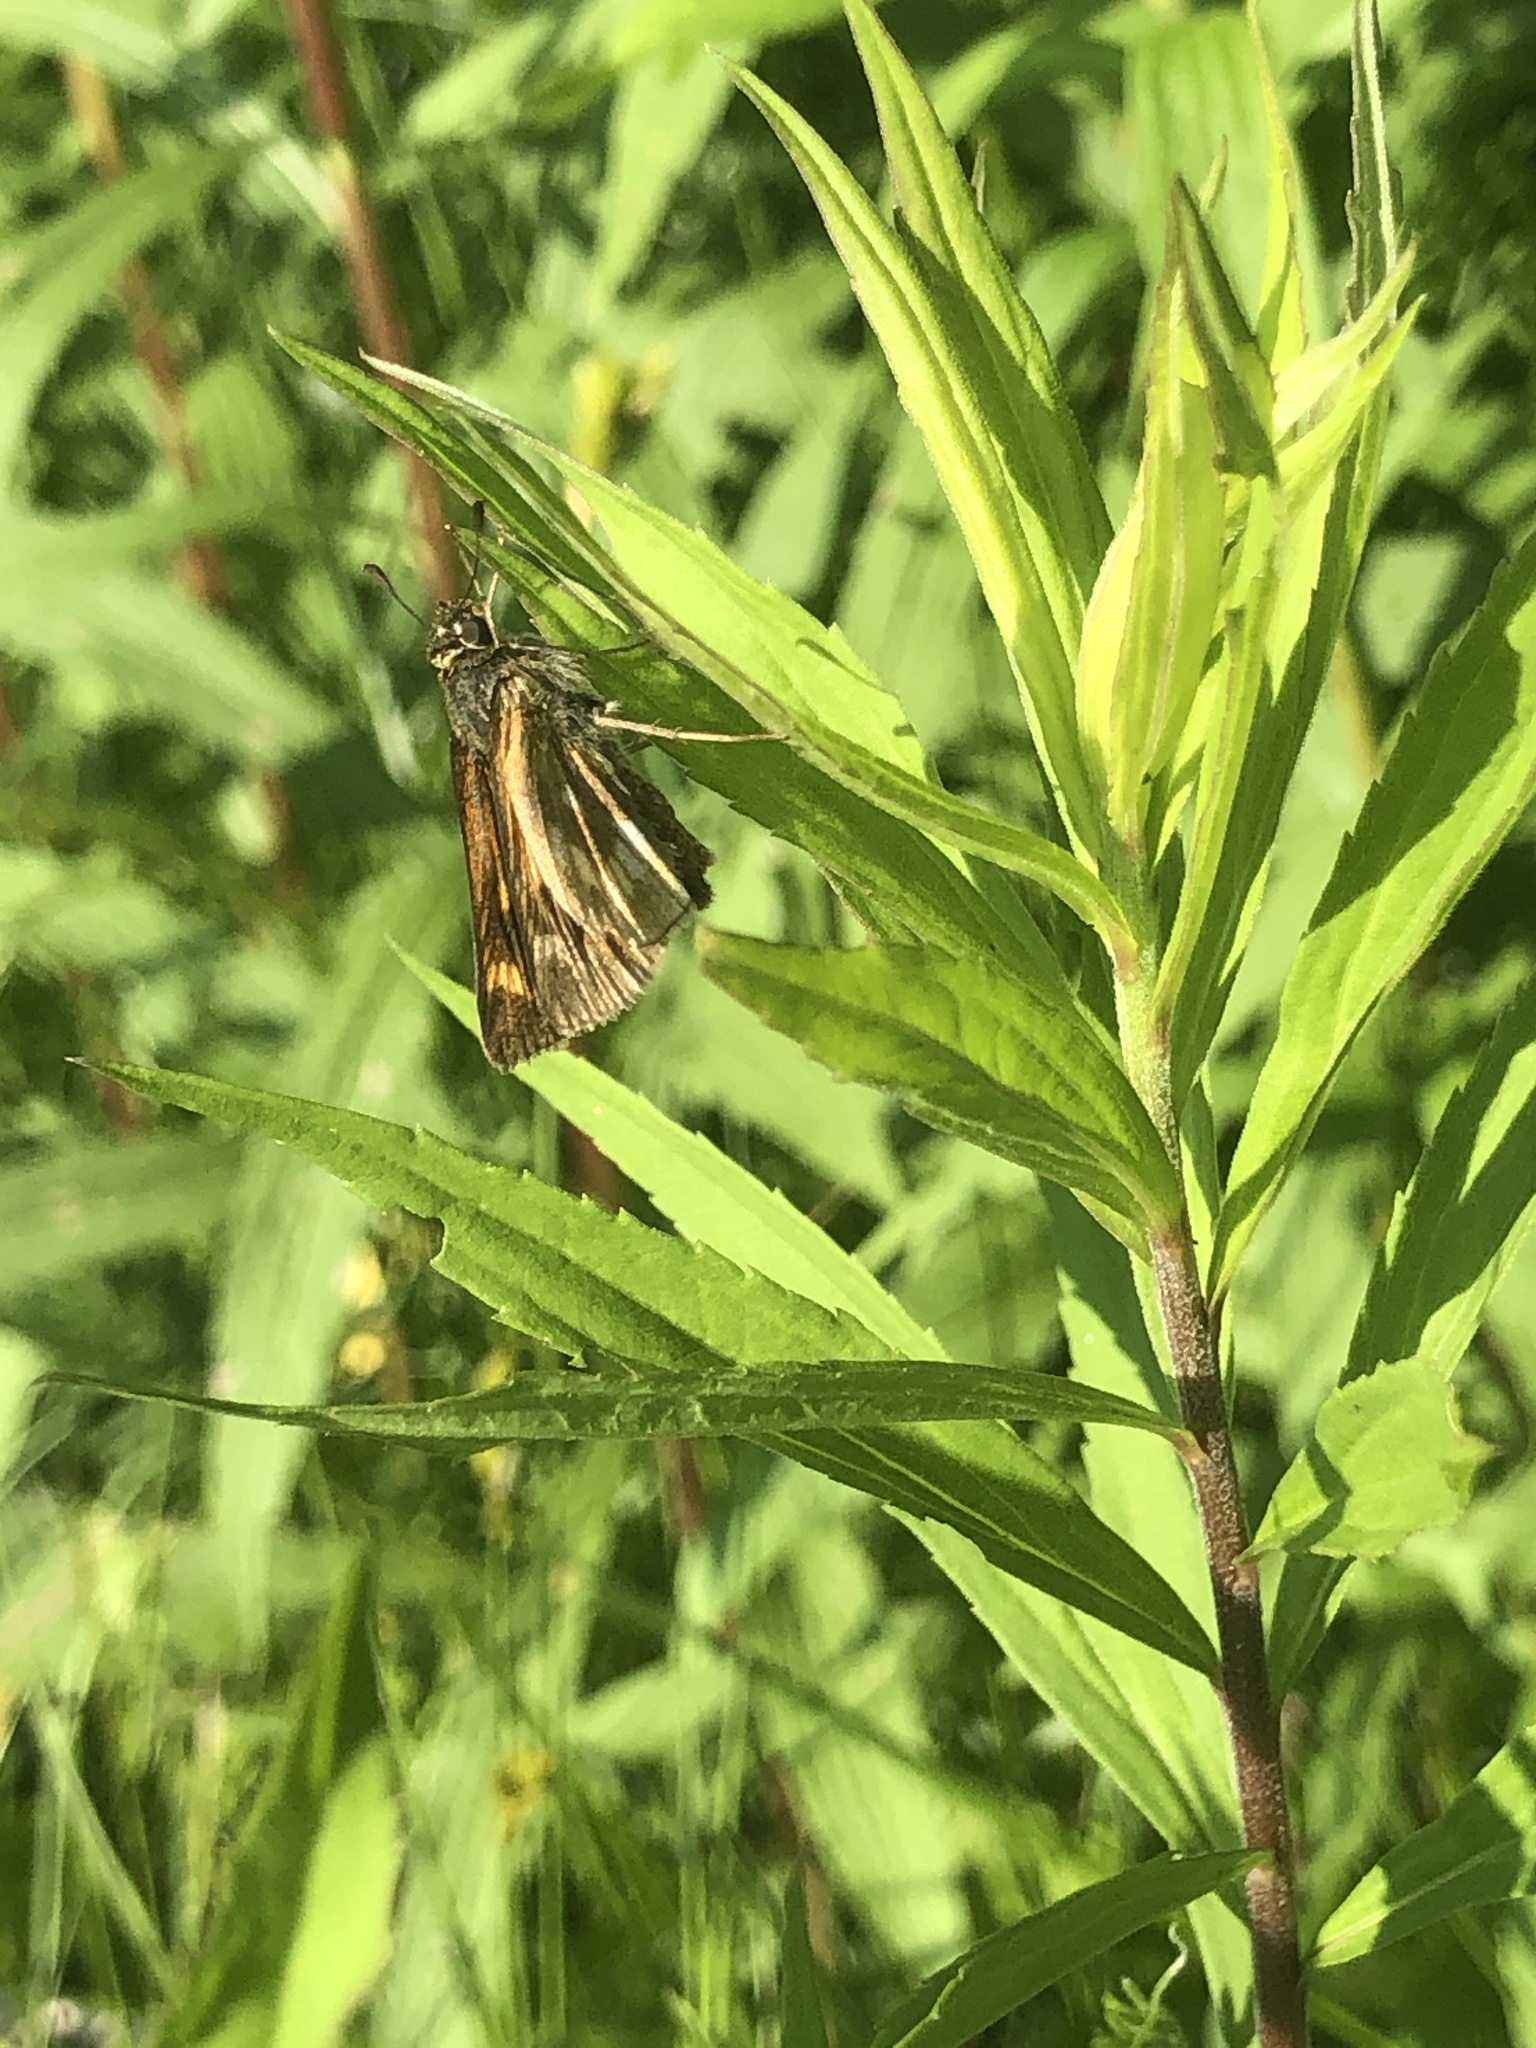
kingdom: Animalia
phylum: Arthropoda
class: Insecta
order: Lepidoptera
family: Hesperiidae
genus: Polites
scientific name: Polites mystic
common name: Long dash
